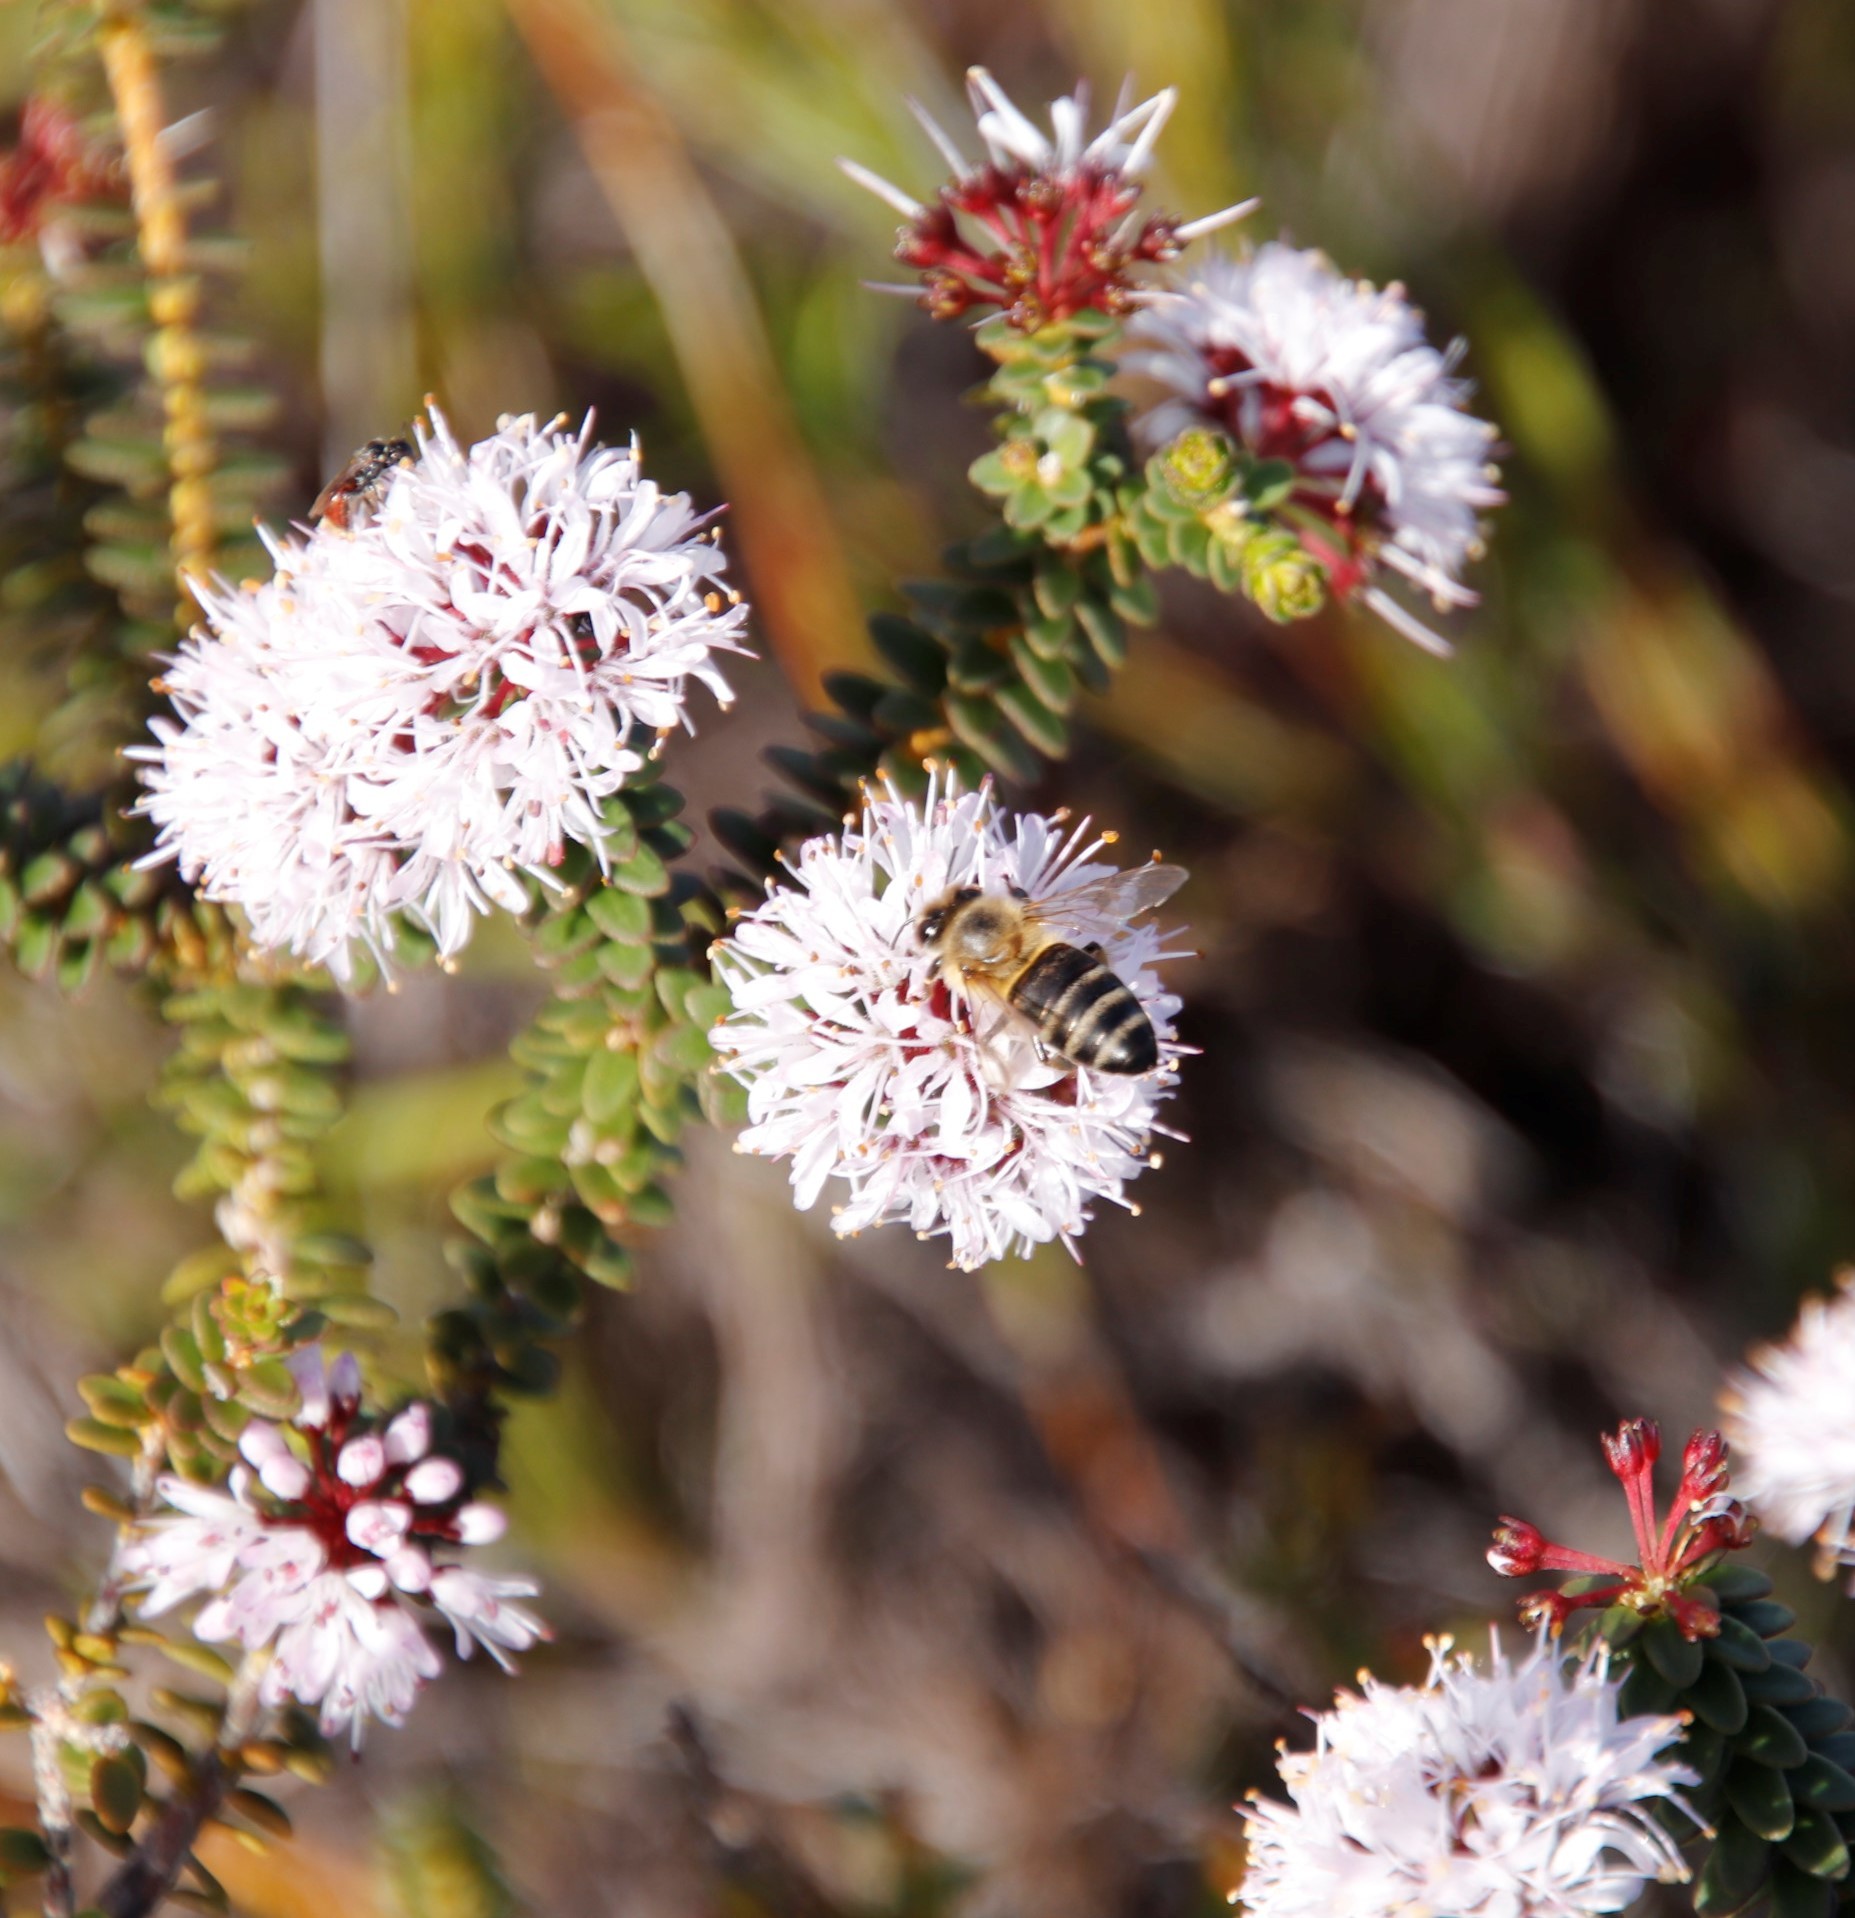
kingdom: Animalia
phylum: Arthropoda
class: Insecta
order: Hymenoptera
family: Apidae
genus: Apis
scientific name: Apis mellifera
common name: Honey bee
